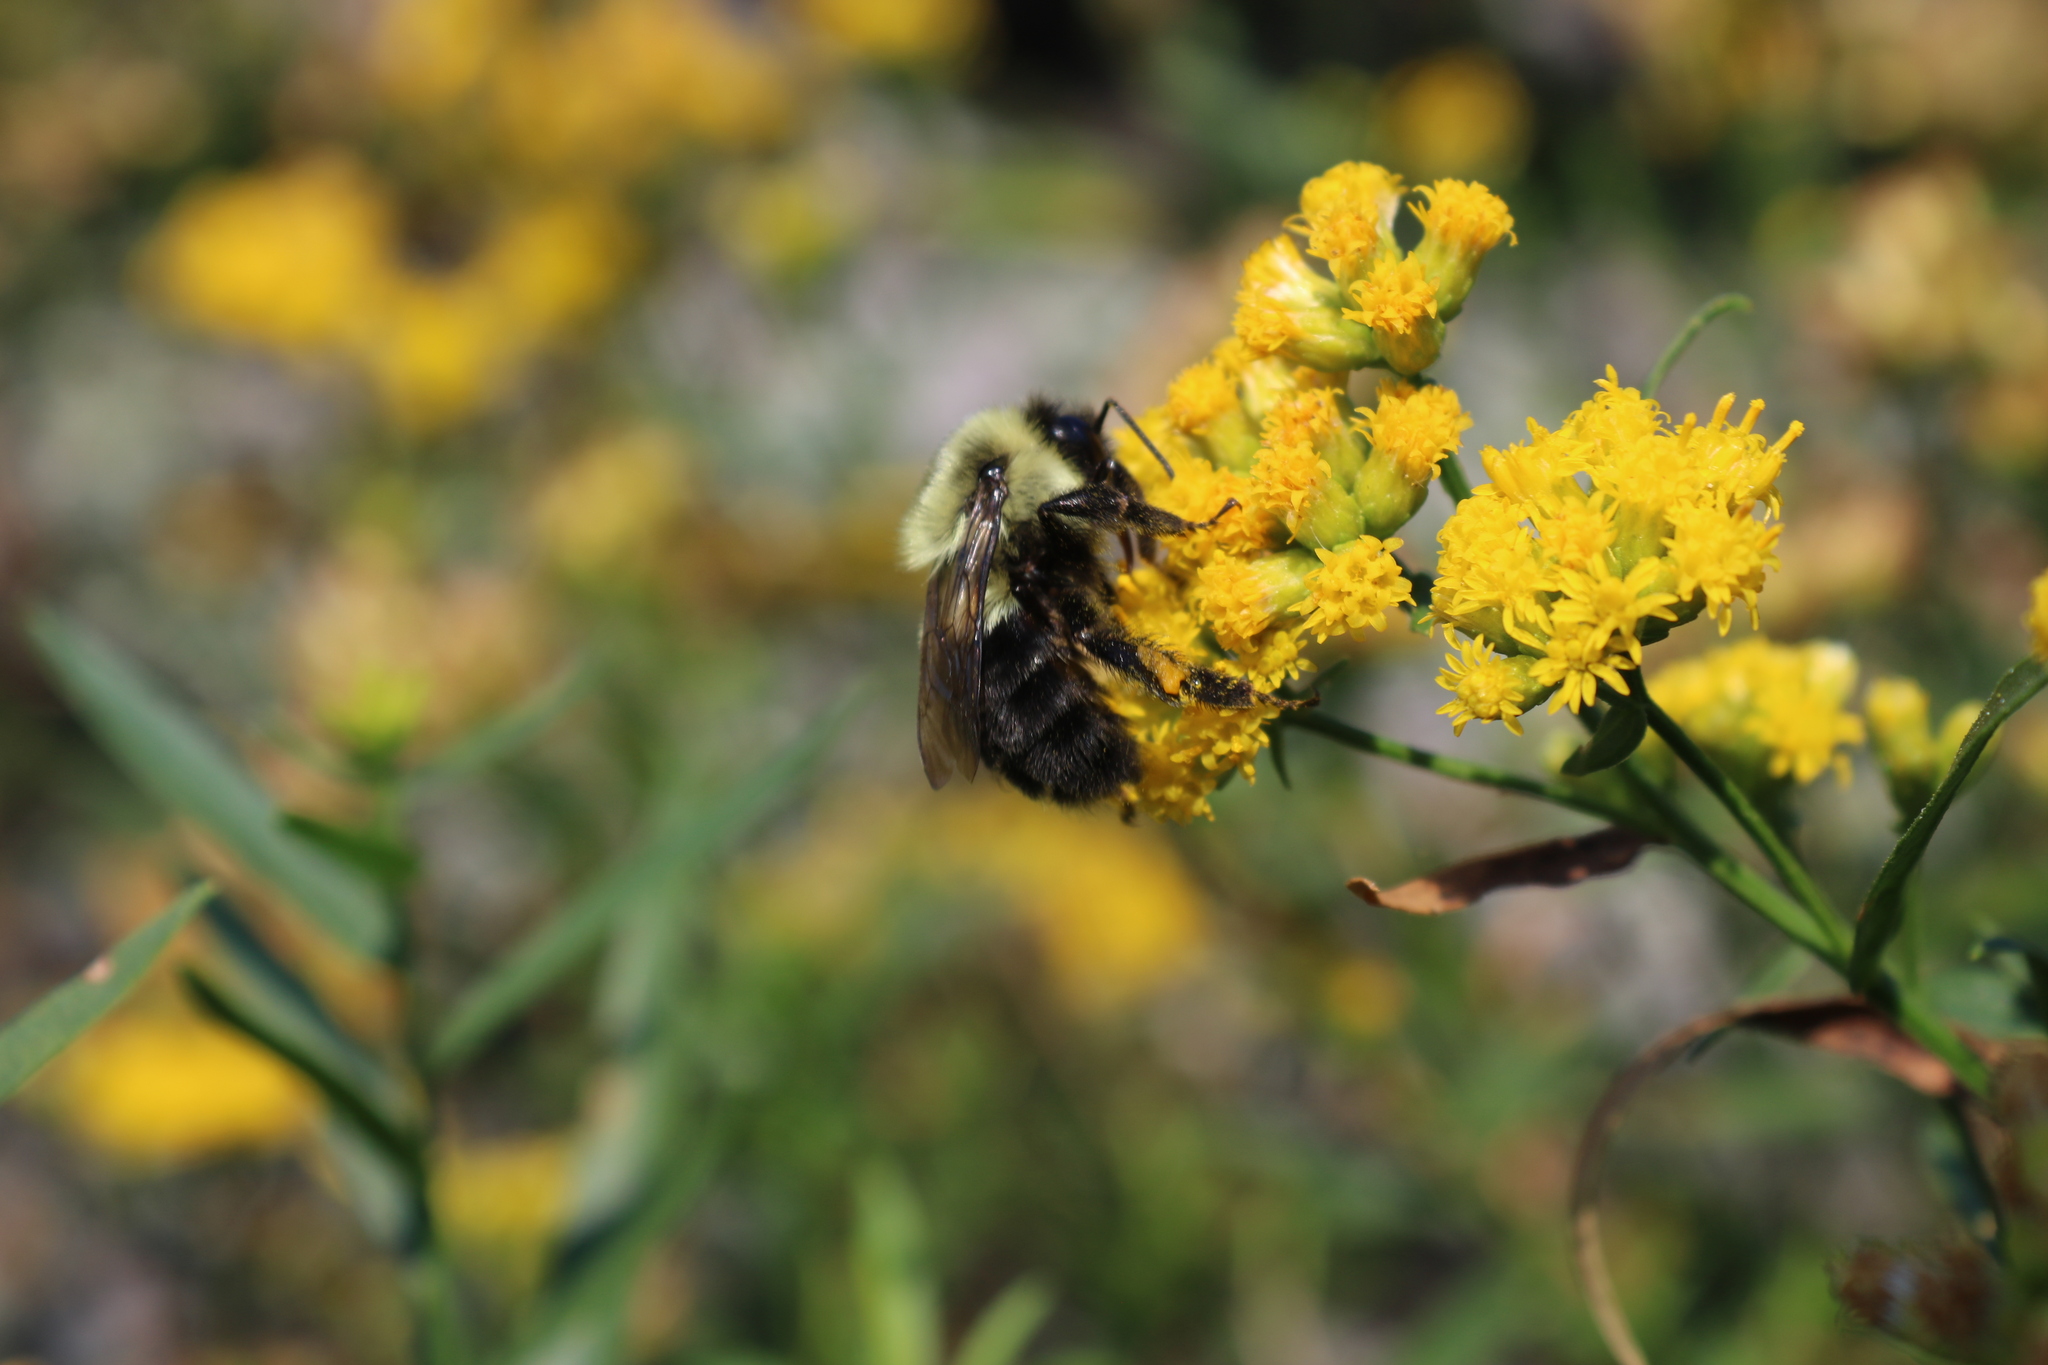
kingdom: Animalia
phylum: Arthropoda
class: Insecta
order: Hymenoptera
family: Apidae
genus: Bombus
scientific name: Bombus impatiens
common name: Common eastern bumble bee
